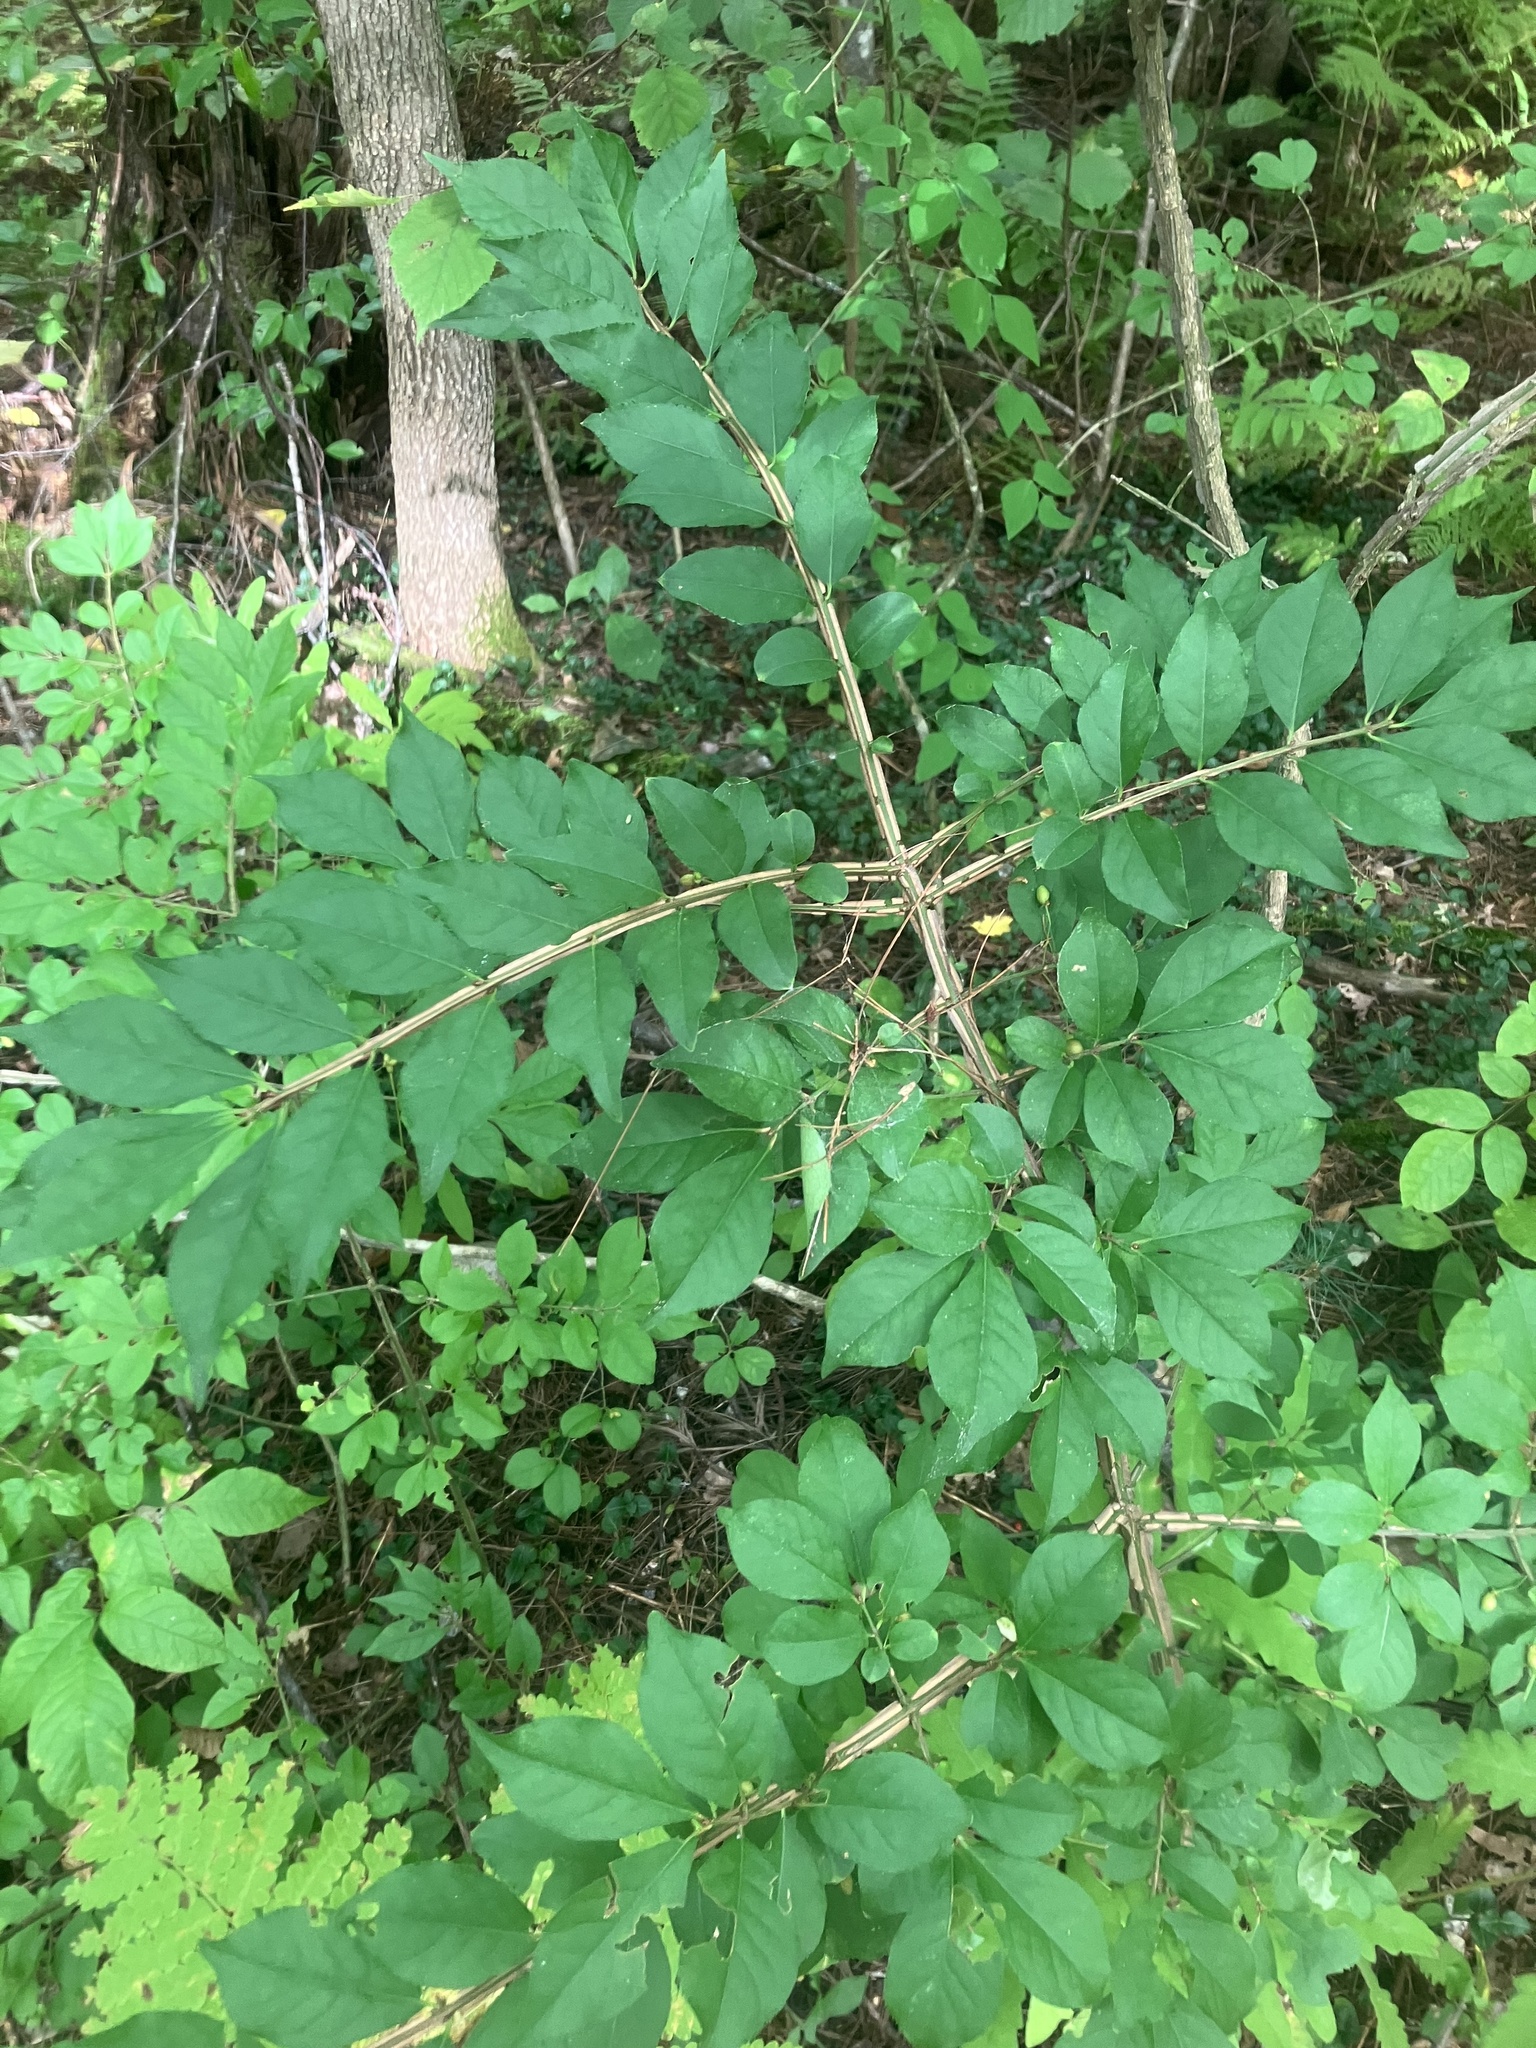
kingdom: Plantae
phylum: Tracheophyta
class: Magnoliopsida
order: Celastrales
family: Celastraceae
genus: Euonymus
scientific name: Euonymus alatus
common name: Winged euonymus
